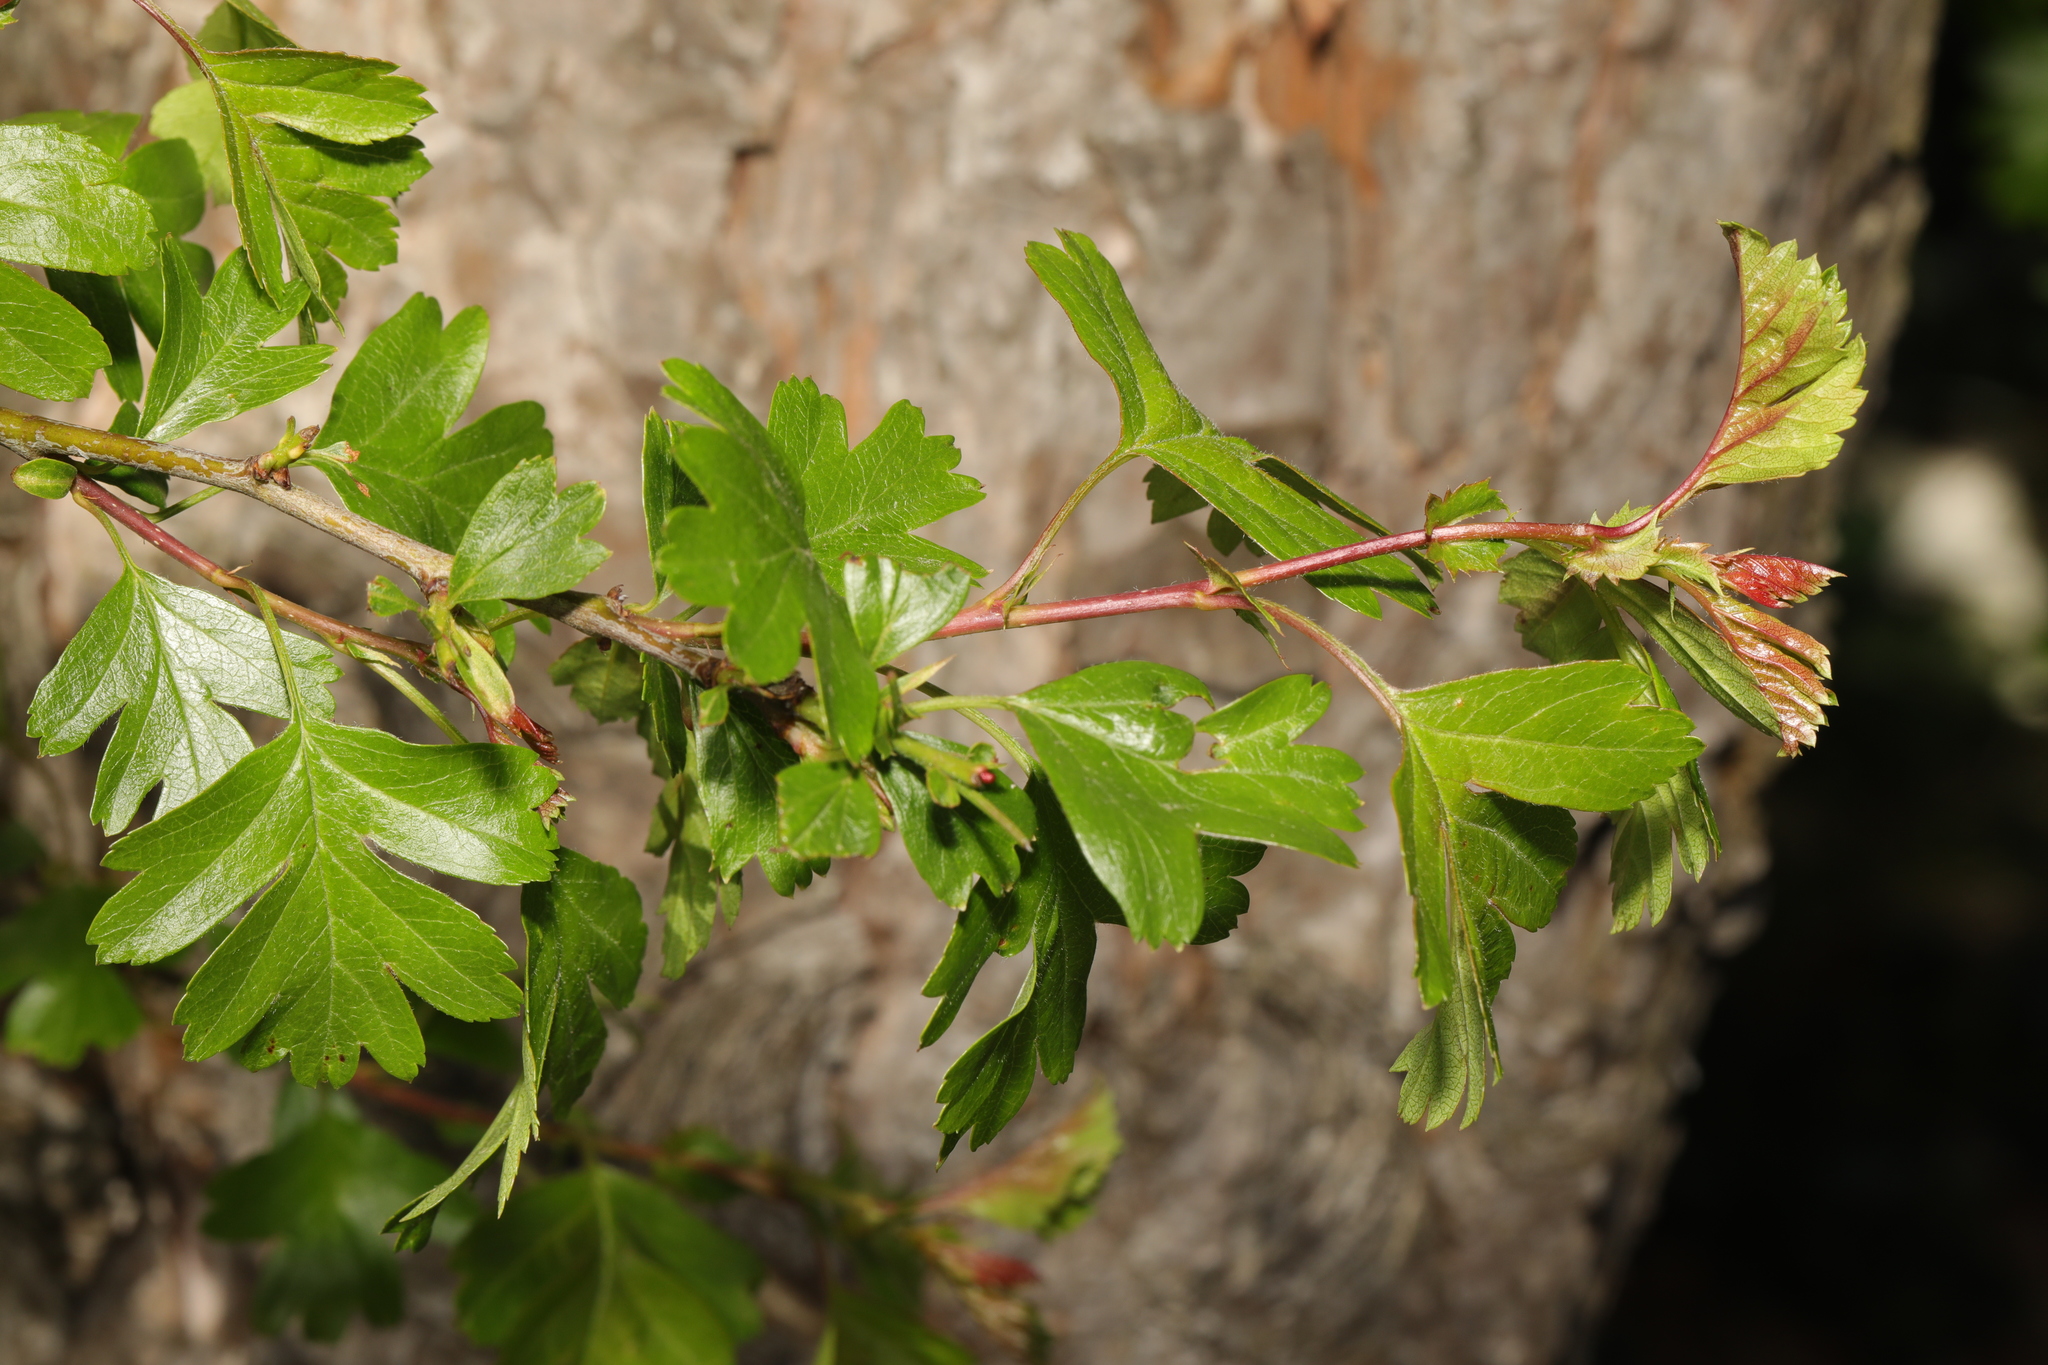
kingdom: Plantae
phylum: Tracheophyta
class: Magnoliopsida
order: Rosales
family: Rosaceae
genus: Crataegus
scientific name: Crataegus monogyna
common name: Hawthorn
